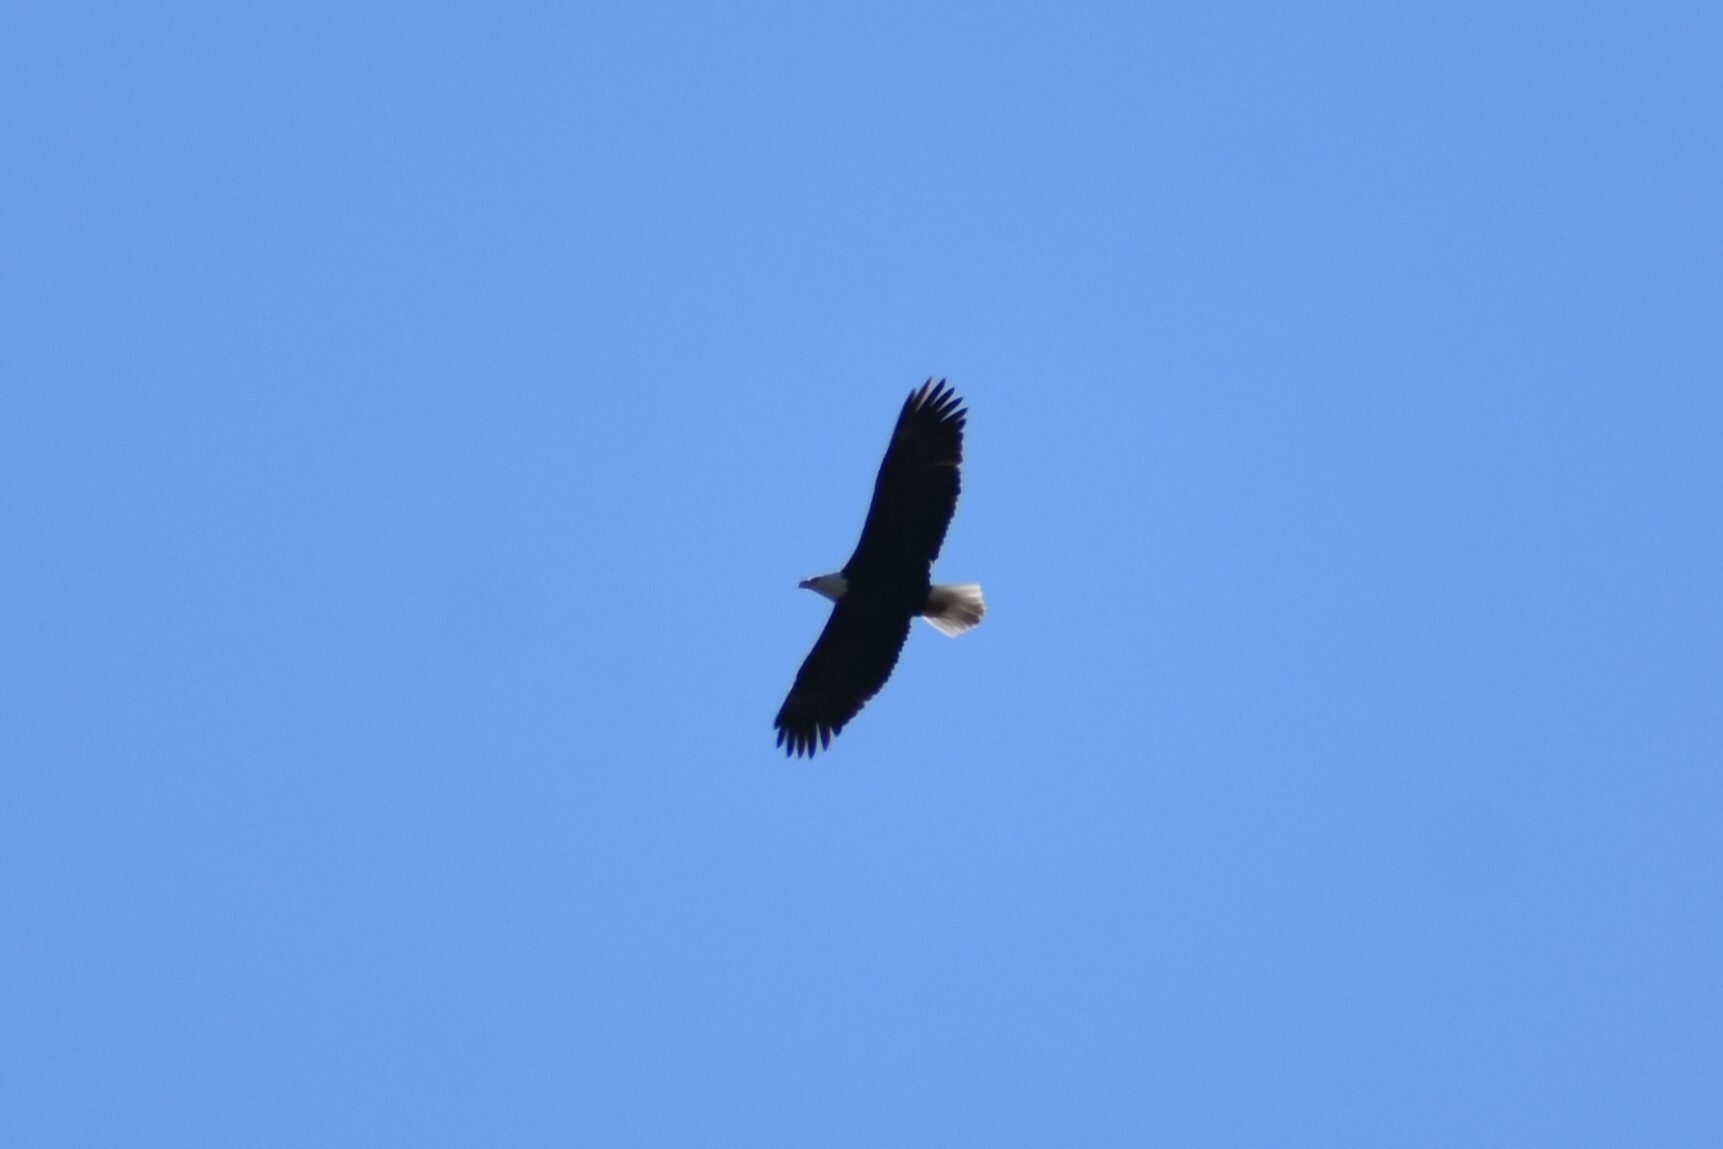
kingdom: Animalia
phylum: Chordata
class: Aves
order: Accipitriformes
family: Accipitridae
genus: Haliaeetus
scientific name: Haliaeetus leucocephalus
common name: Bald eagle
